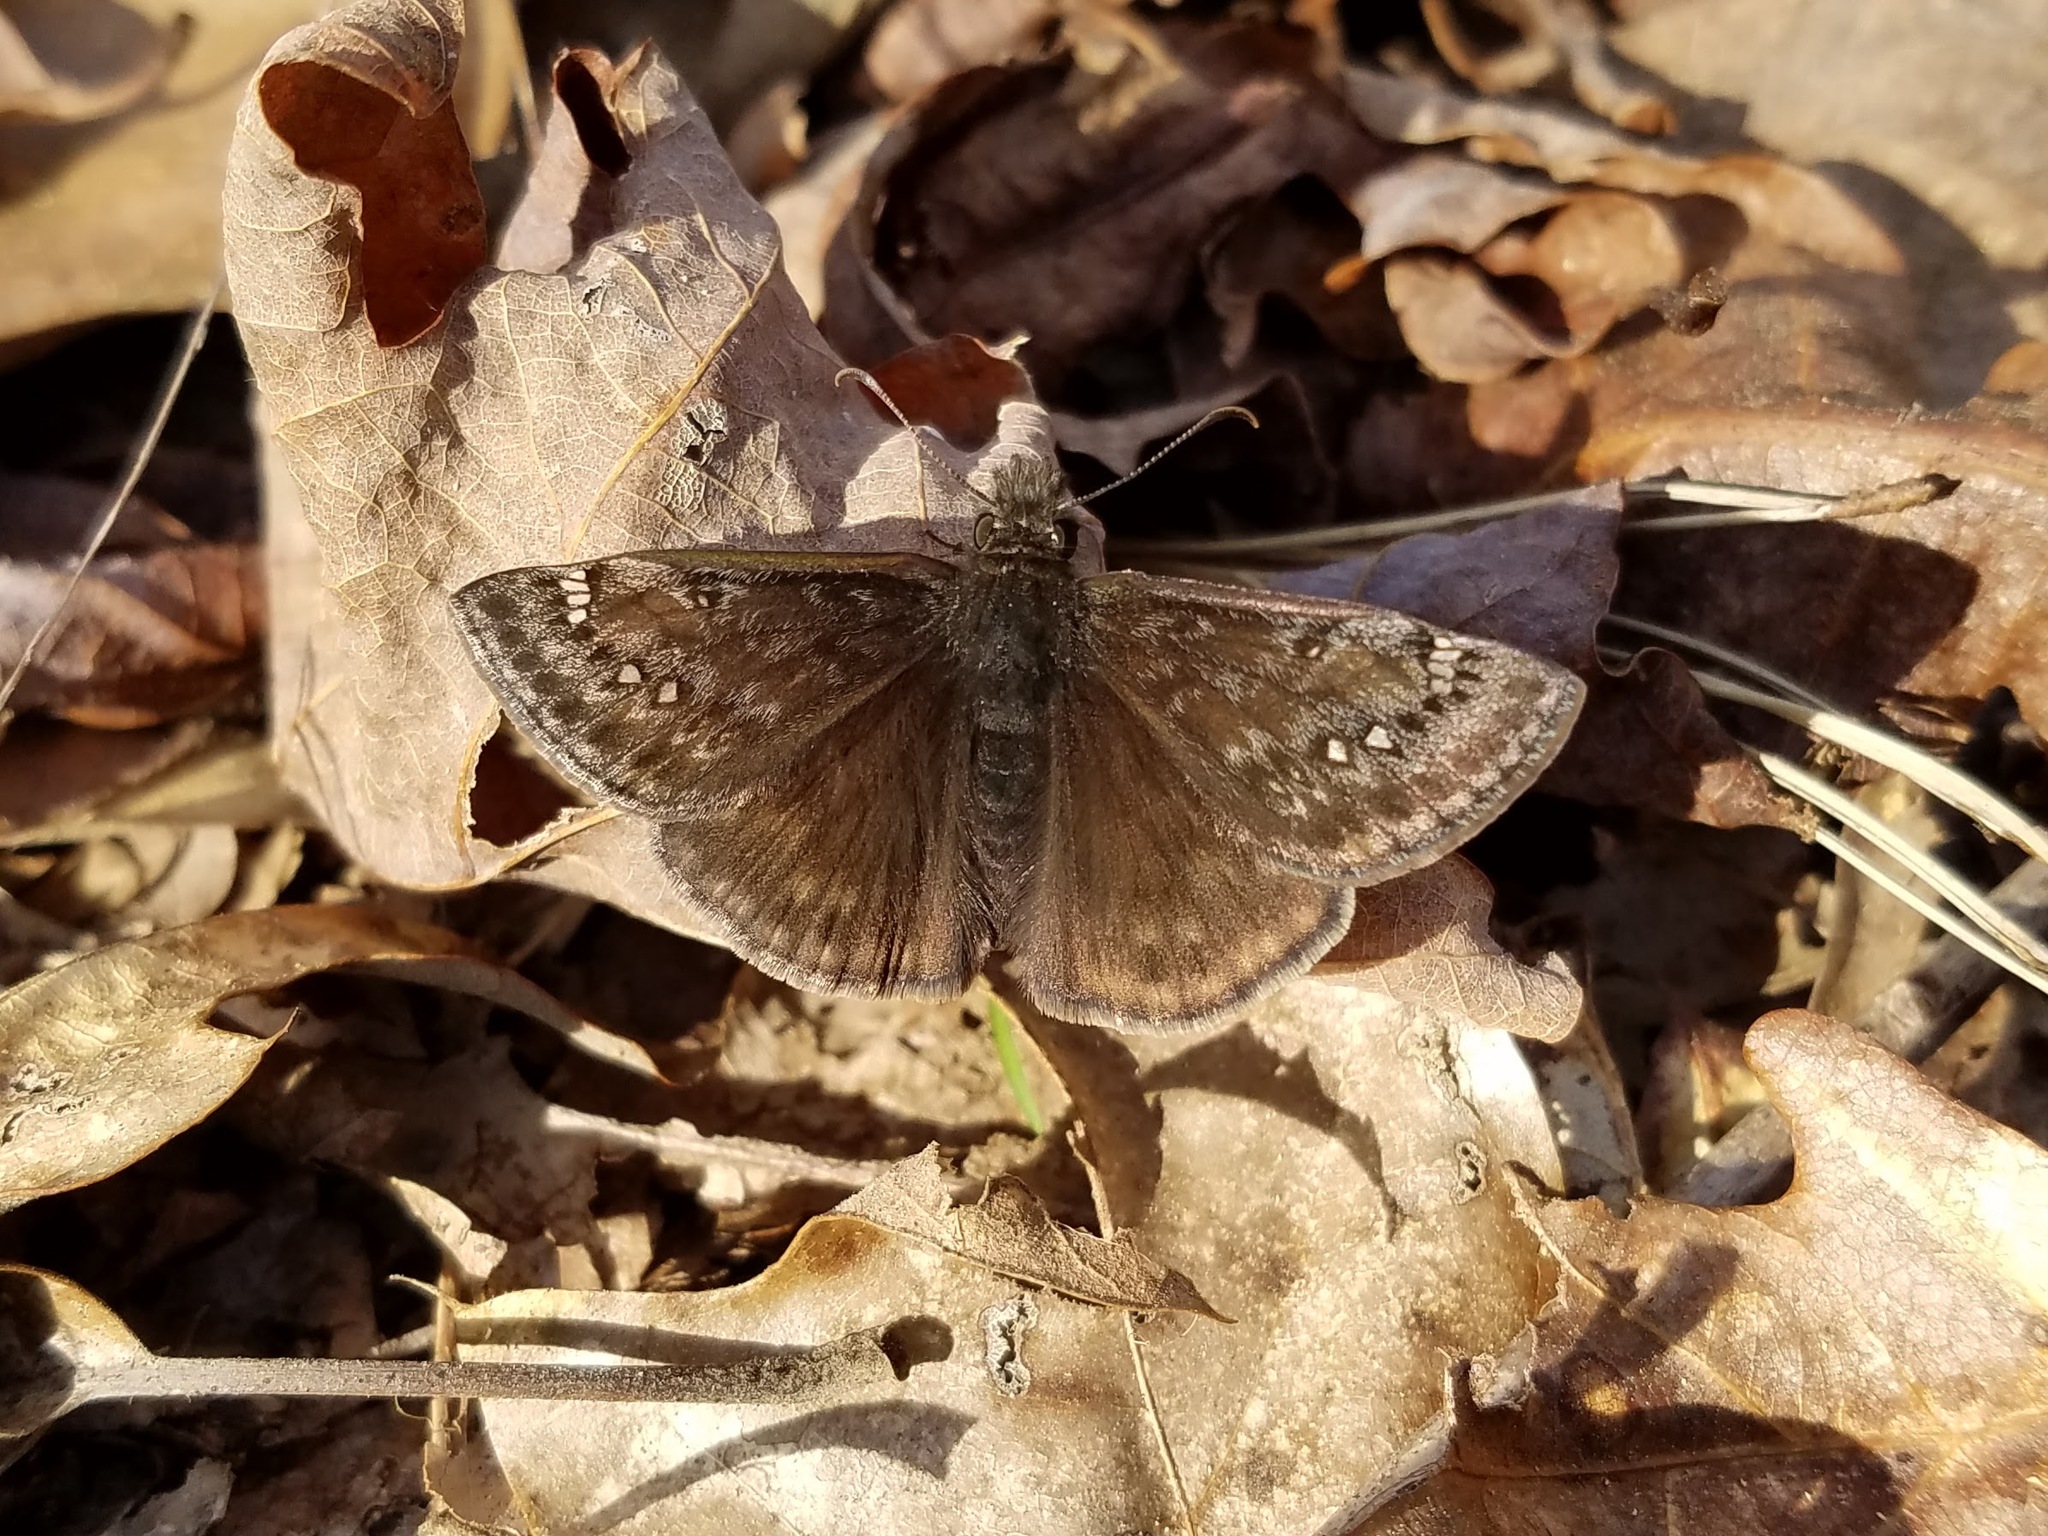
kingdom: Animalia
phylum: Arthropoda
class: Insecta
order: Lepidoptera
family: Hesperiidae
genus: Erynnis
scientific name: Erynnis juvenalis
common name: Juvenal's duskywing
